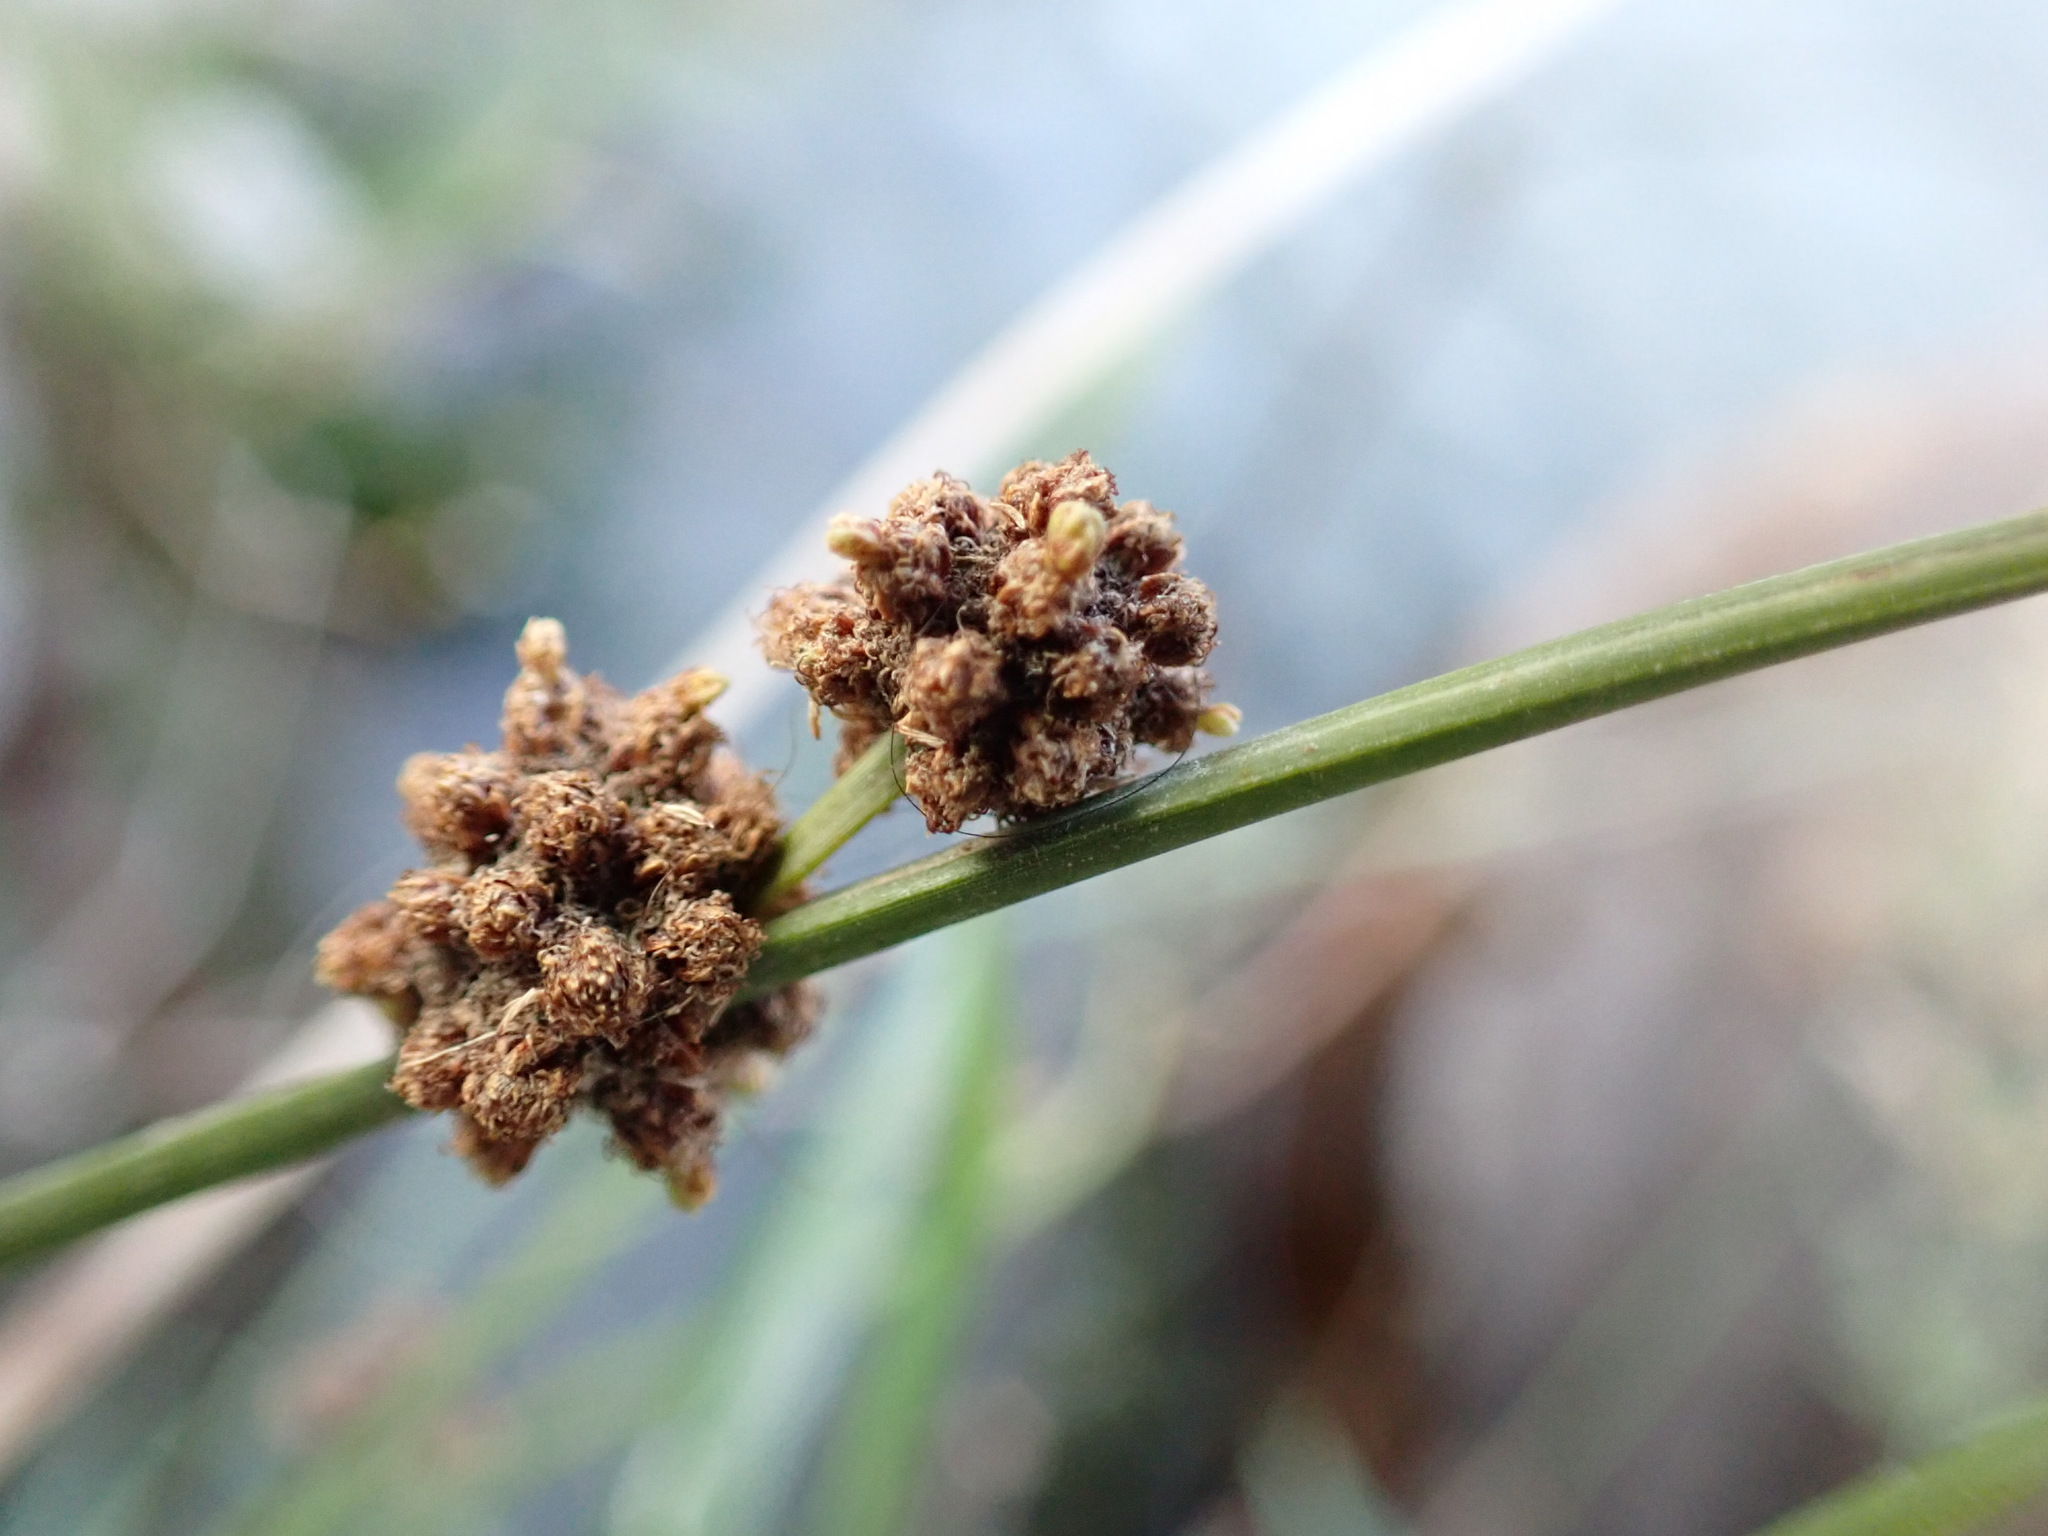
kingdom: Plantae
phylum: Tracheophyta
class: Liliopsida
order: Poales
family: Cyperaceae
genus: Scirpoides
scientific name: Scirpoides holoschoenus
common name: Round-headed club-rush
